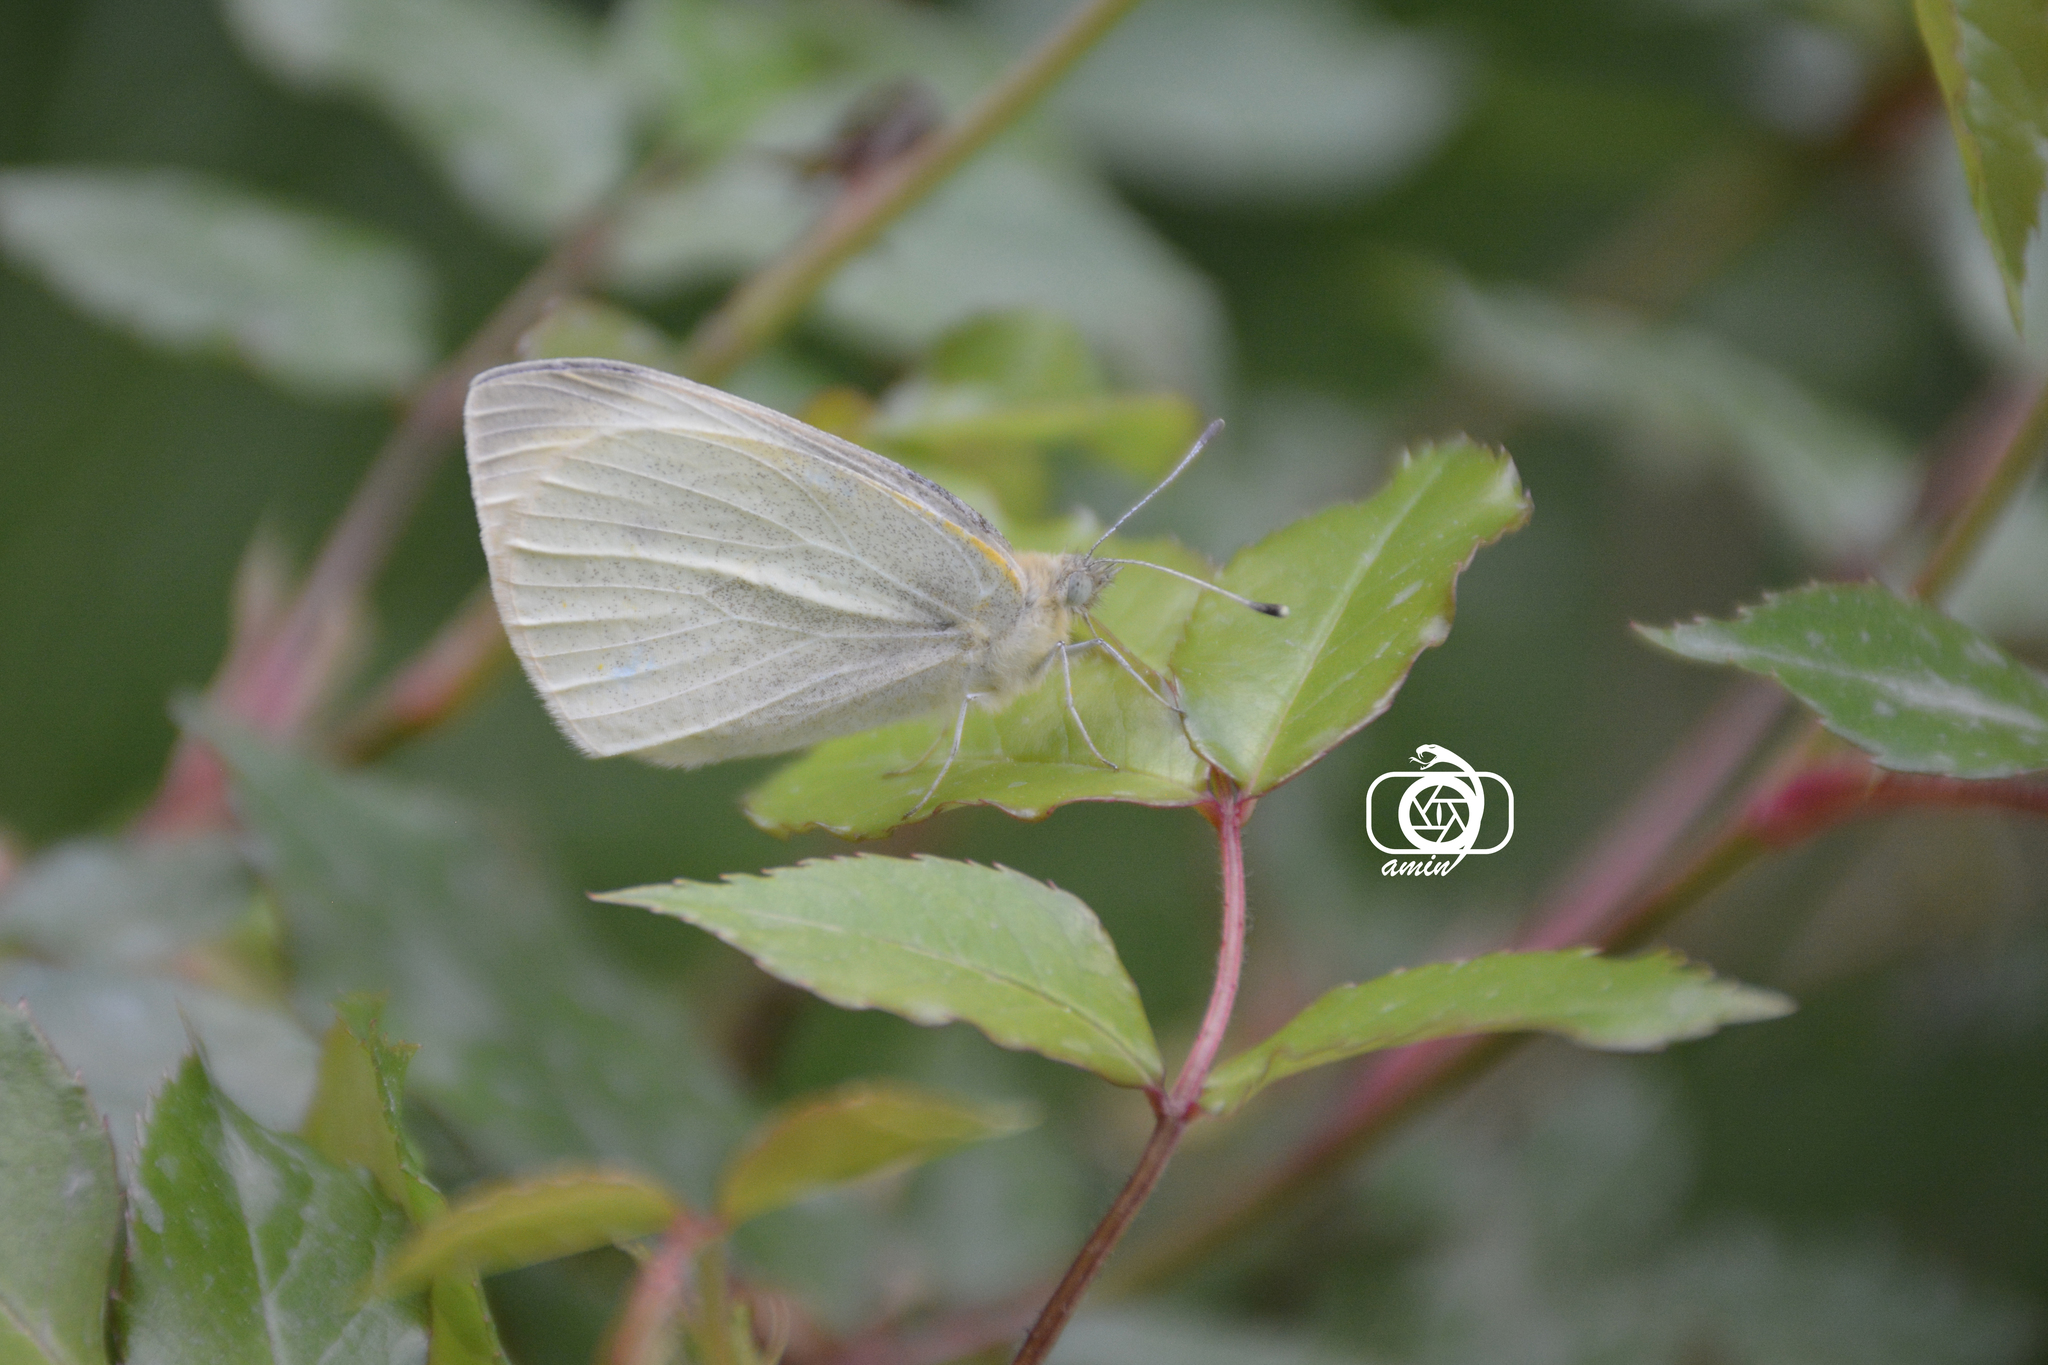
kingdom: Animalia
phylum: Arthropoda
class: Insecta
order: Lepidoptera
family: Pieridae
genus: Pieris
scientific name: Pieris rapae
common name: Small white
